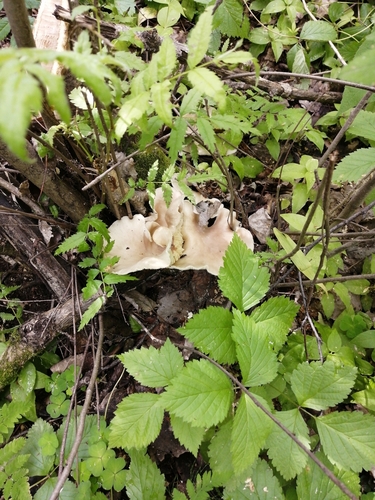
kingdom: Fungi
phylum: Basidiomycota
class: Agaricomycetes
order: Agaricales
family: Pleurotaceae
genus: Pleurotus
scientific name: Pleurotus pulmonarius
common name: Pale oyster
